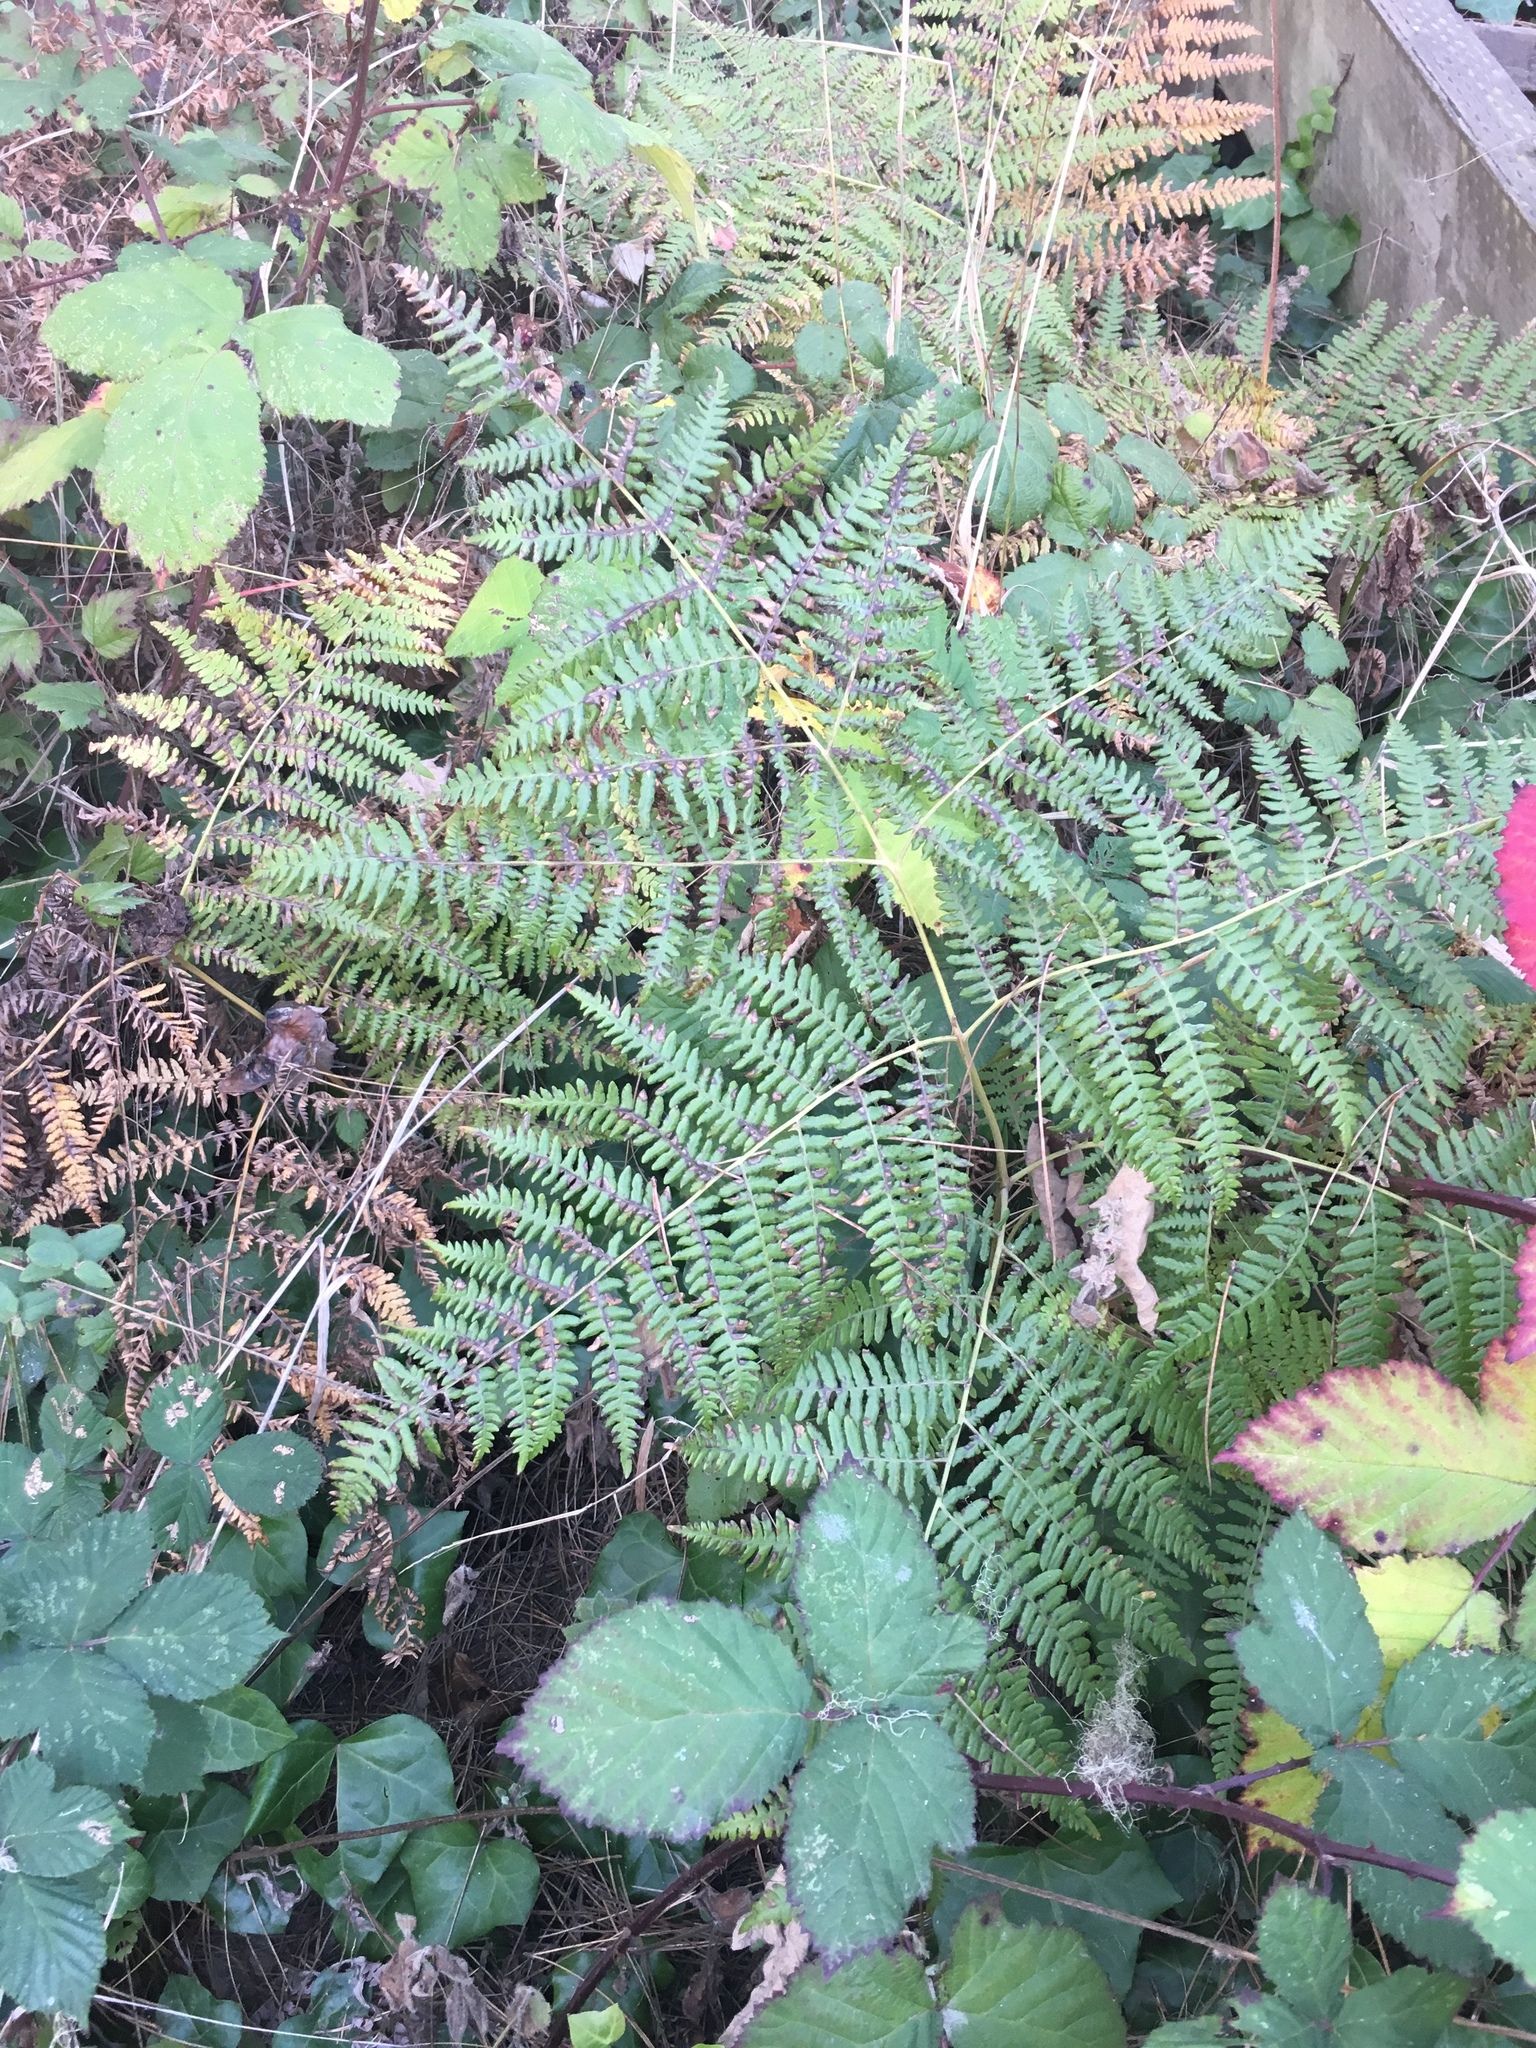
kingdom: Plantae
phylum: Tracheophyta
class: Polypodiopsida
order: Polypodiales
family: Dennstaedtiaceae
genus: Pteridium
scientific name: Pteridium aquilinum
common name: Bracken
